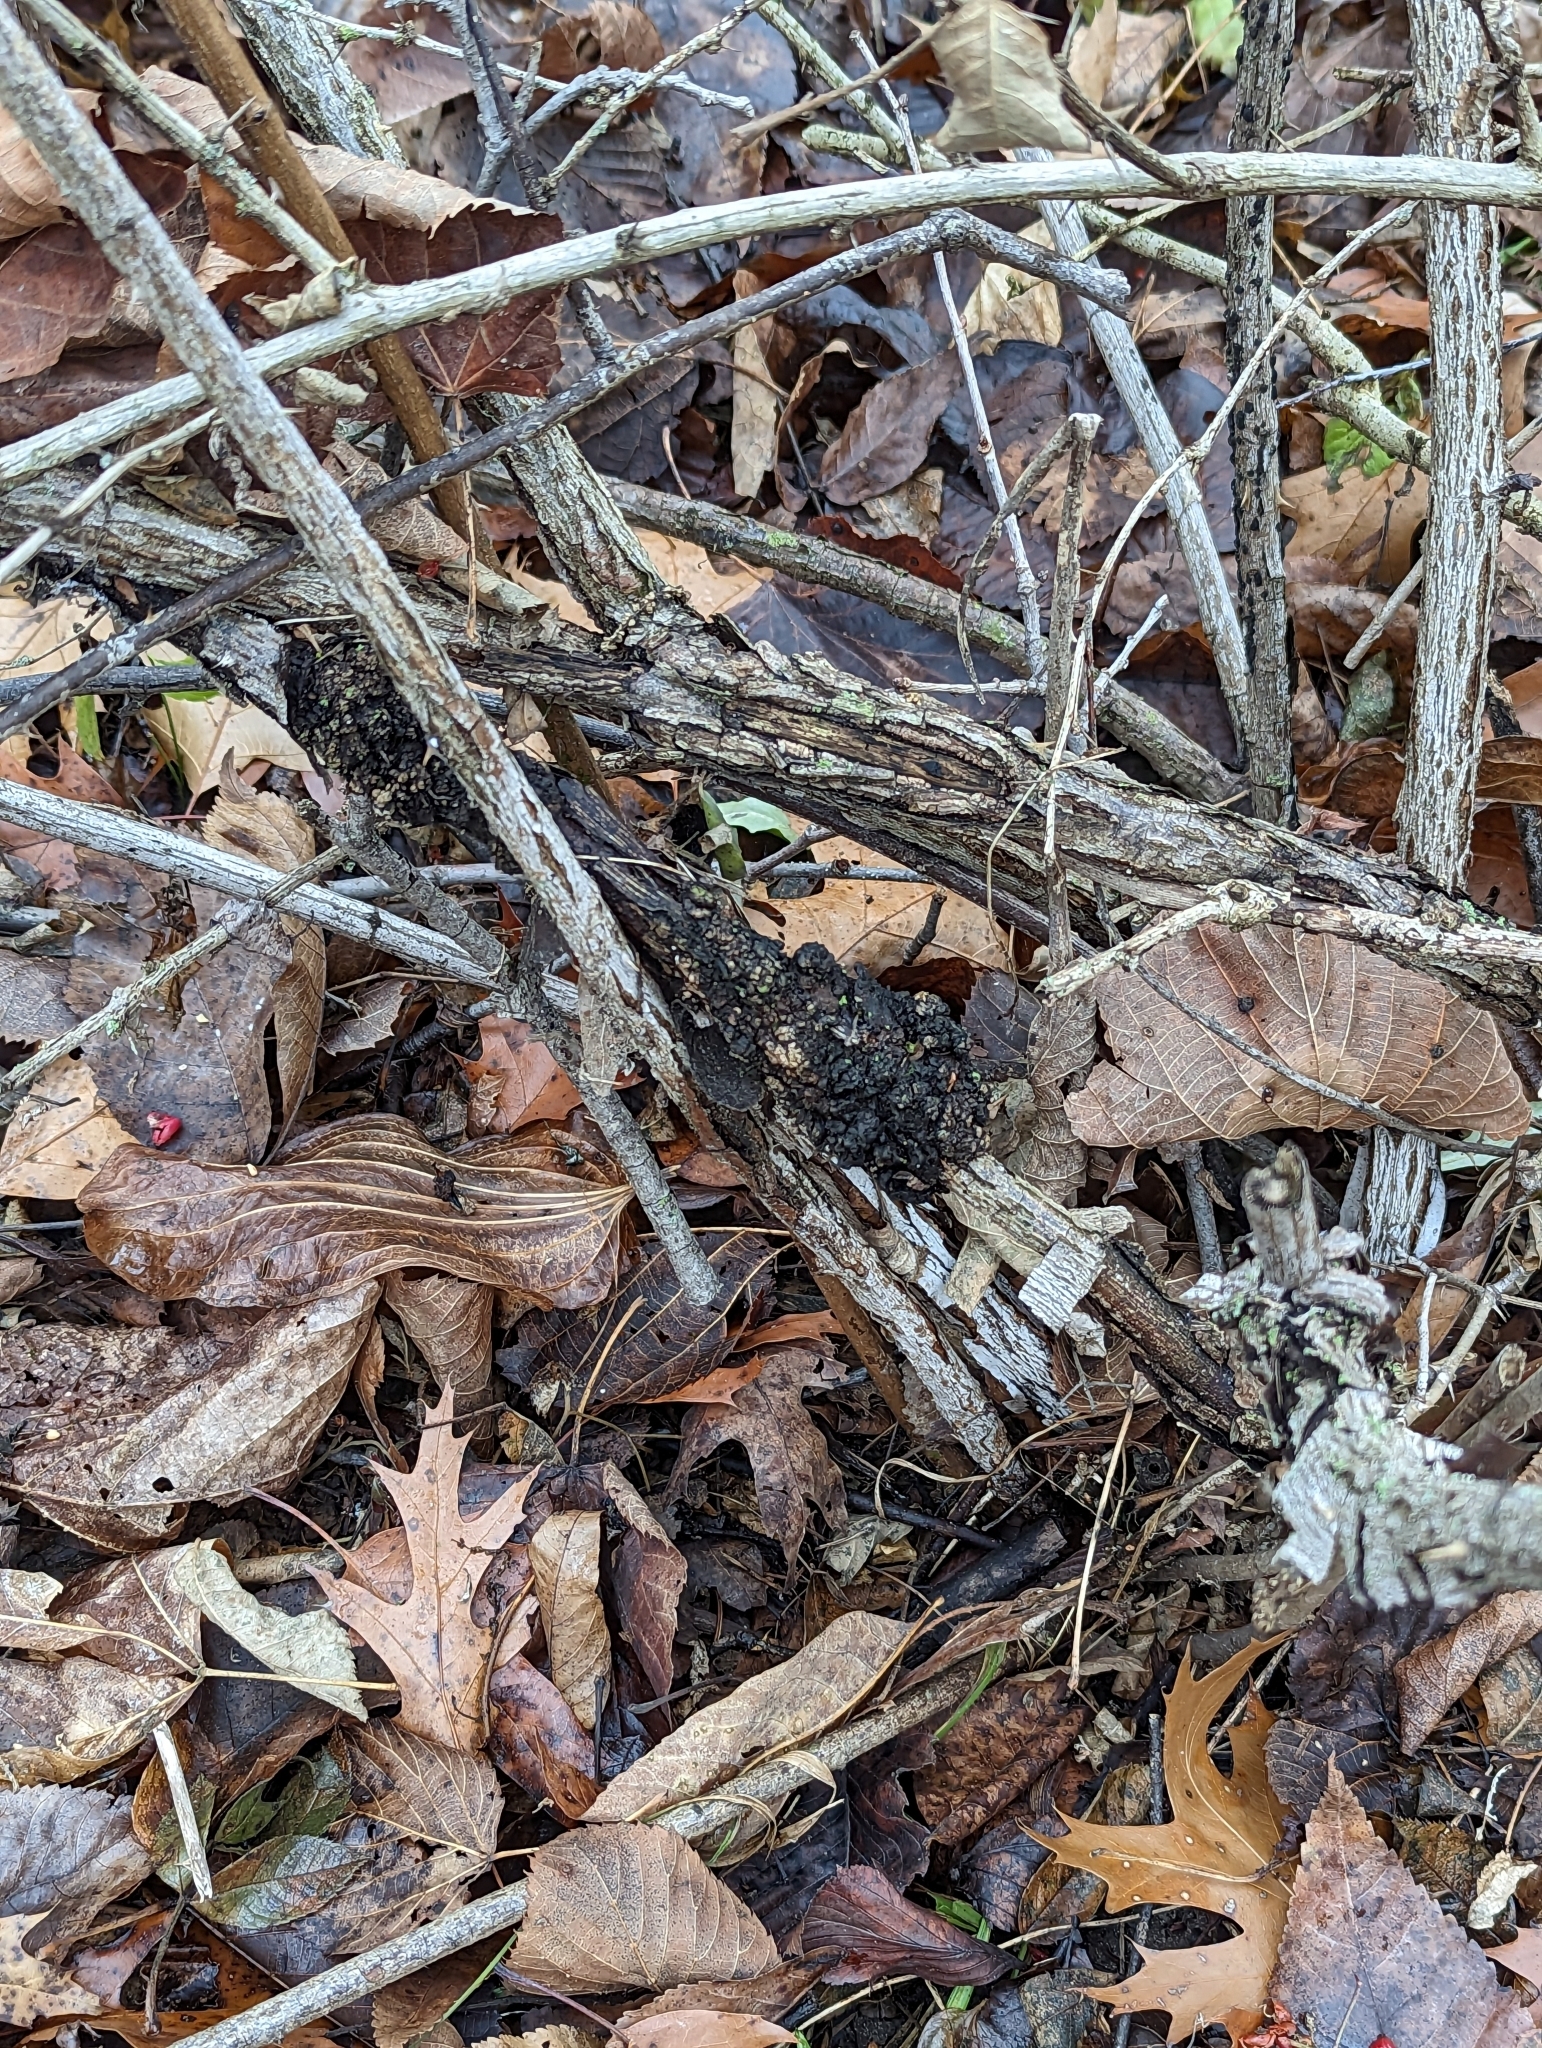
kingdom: Fungi
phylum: Ascomycota
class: Dothideomycetes
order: Venturiales
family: Venturiaceae
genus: Apiosporina
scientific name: Apiosporina morbosa
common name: Black knot
